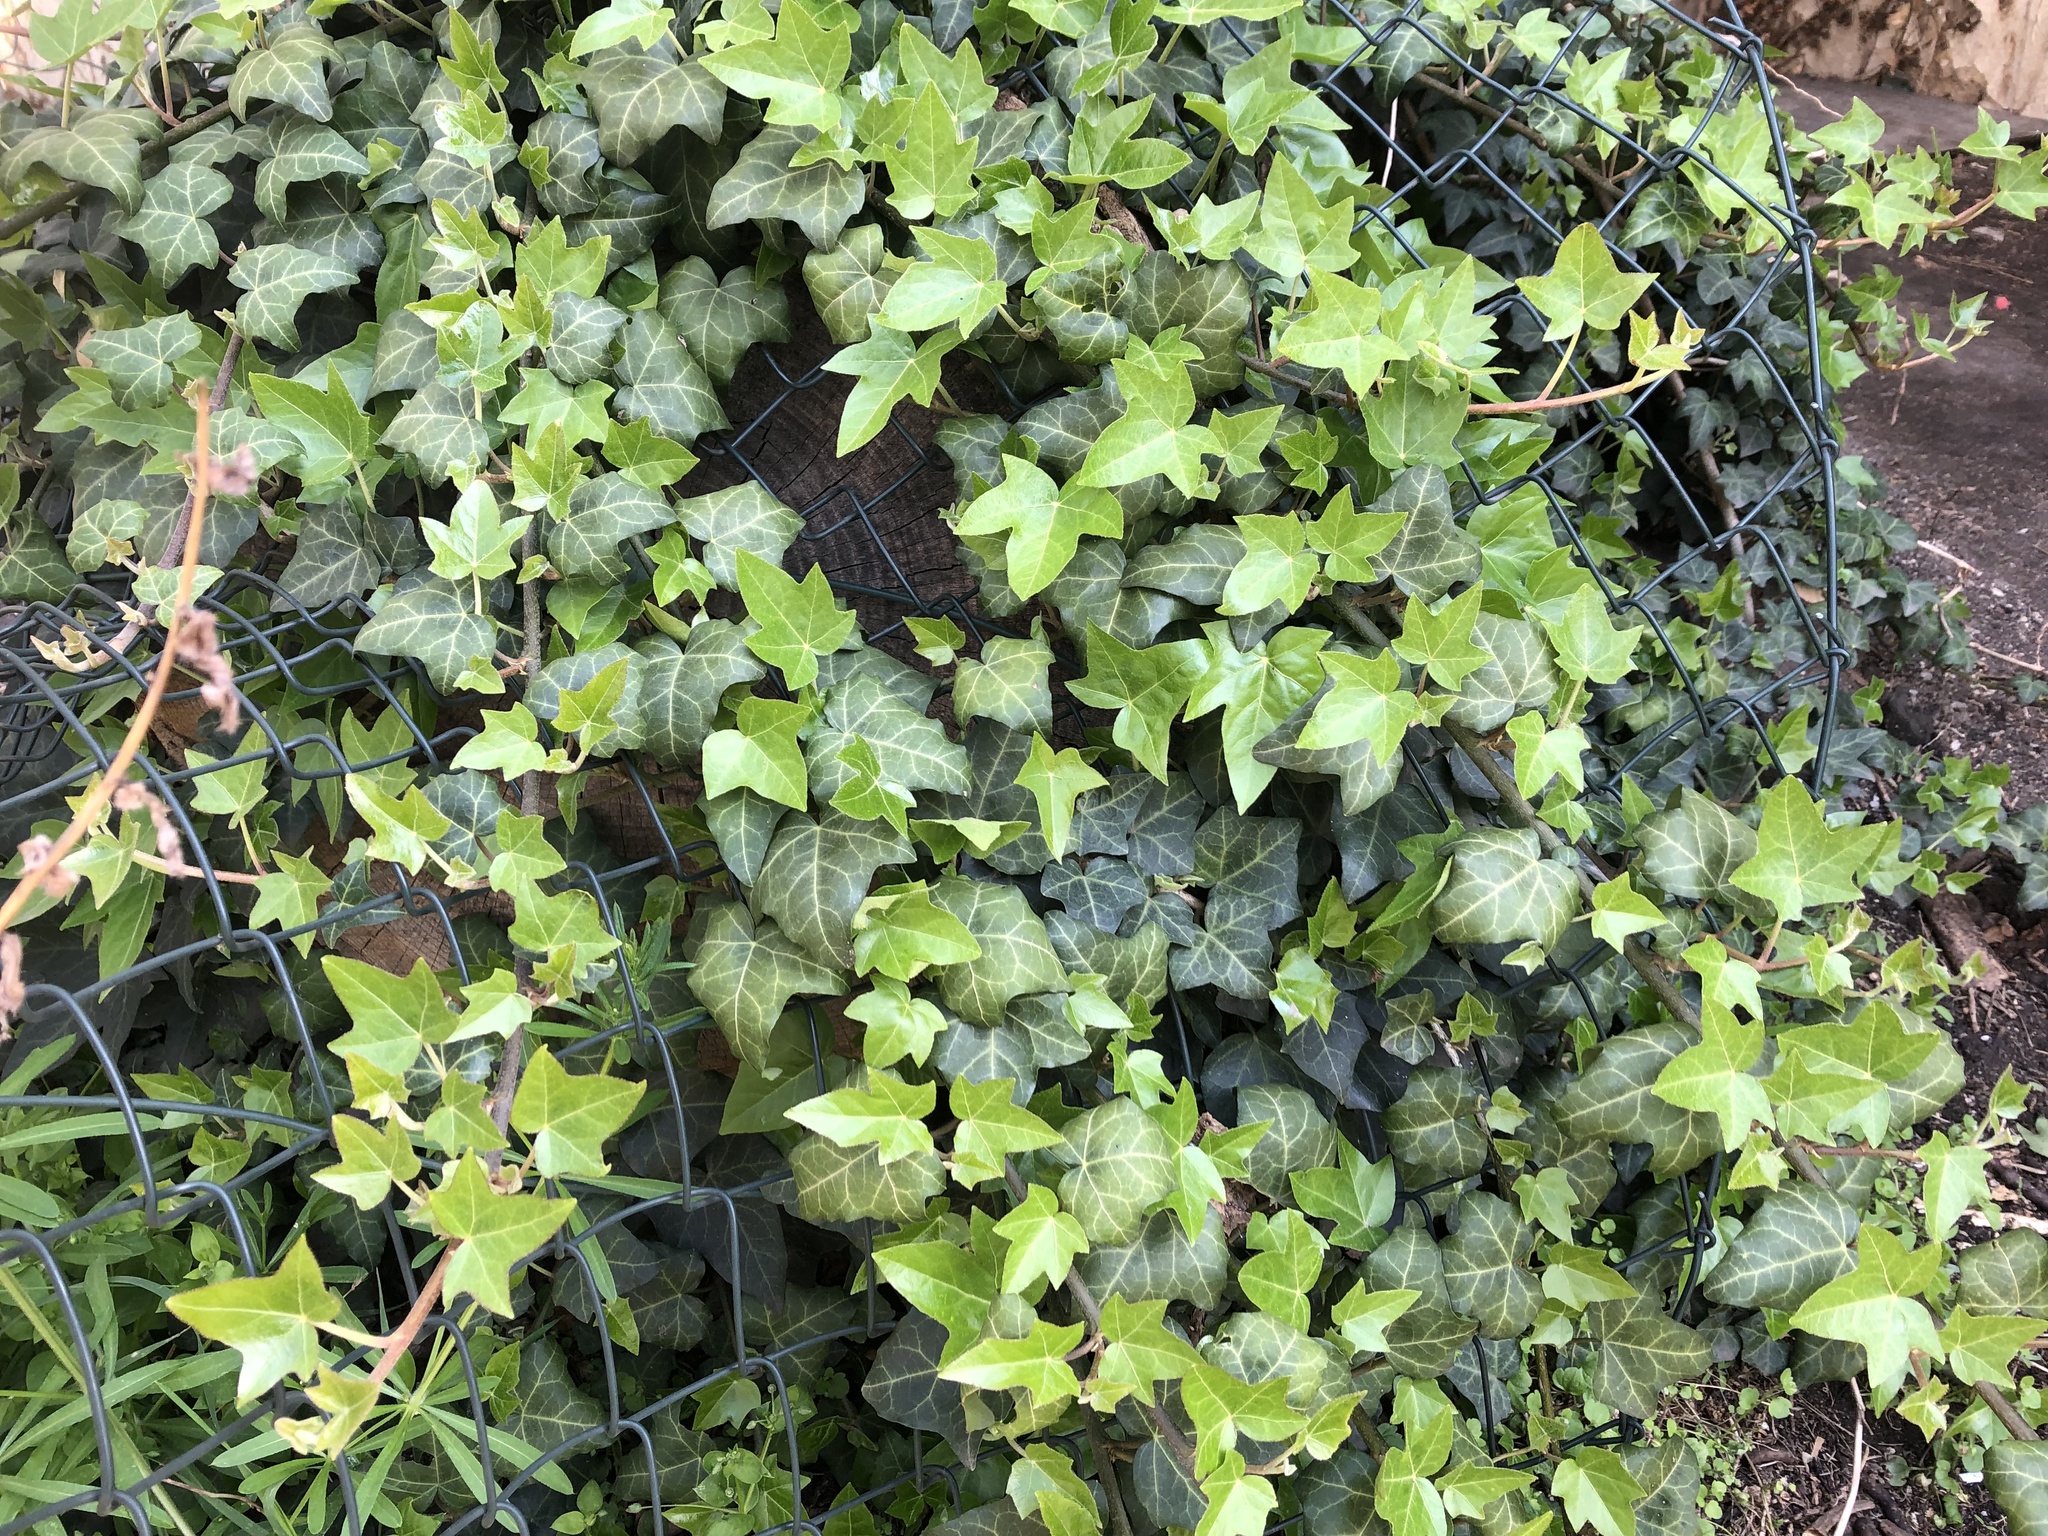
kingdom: Plantae
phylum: Tracheophyta
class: Magnoliopsida
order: Apiales
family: Araliaceae
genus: Hedera
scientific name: Hedera helix
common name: Ivy
